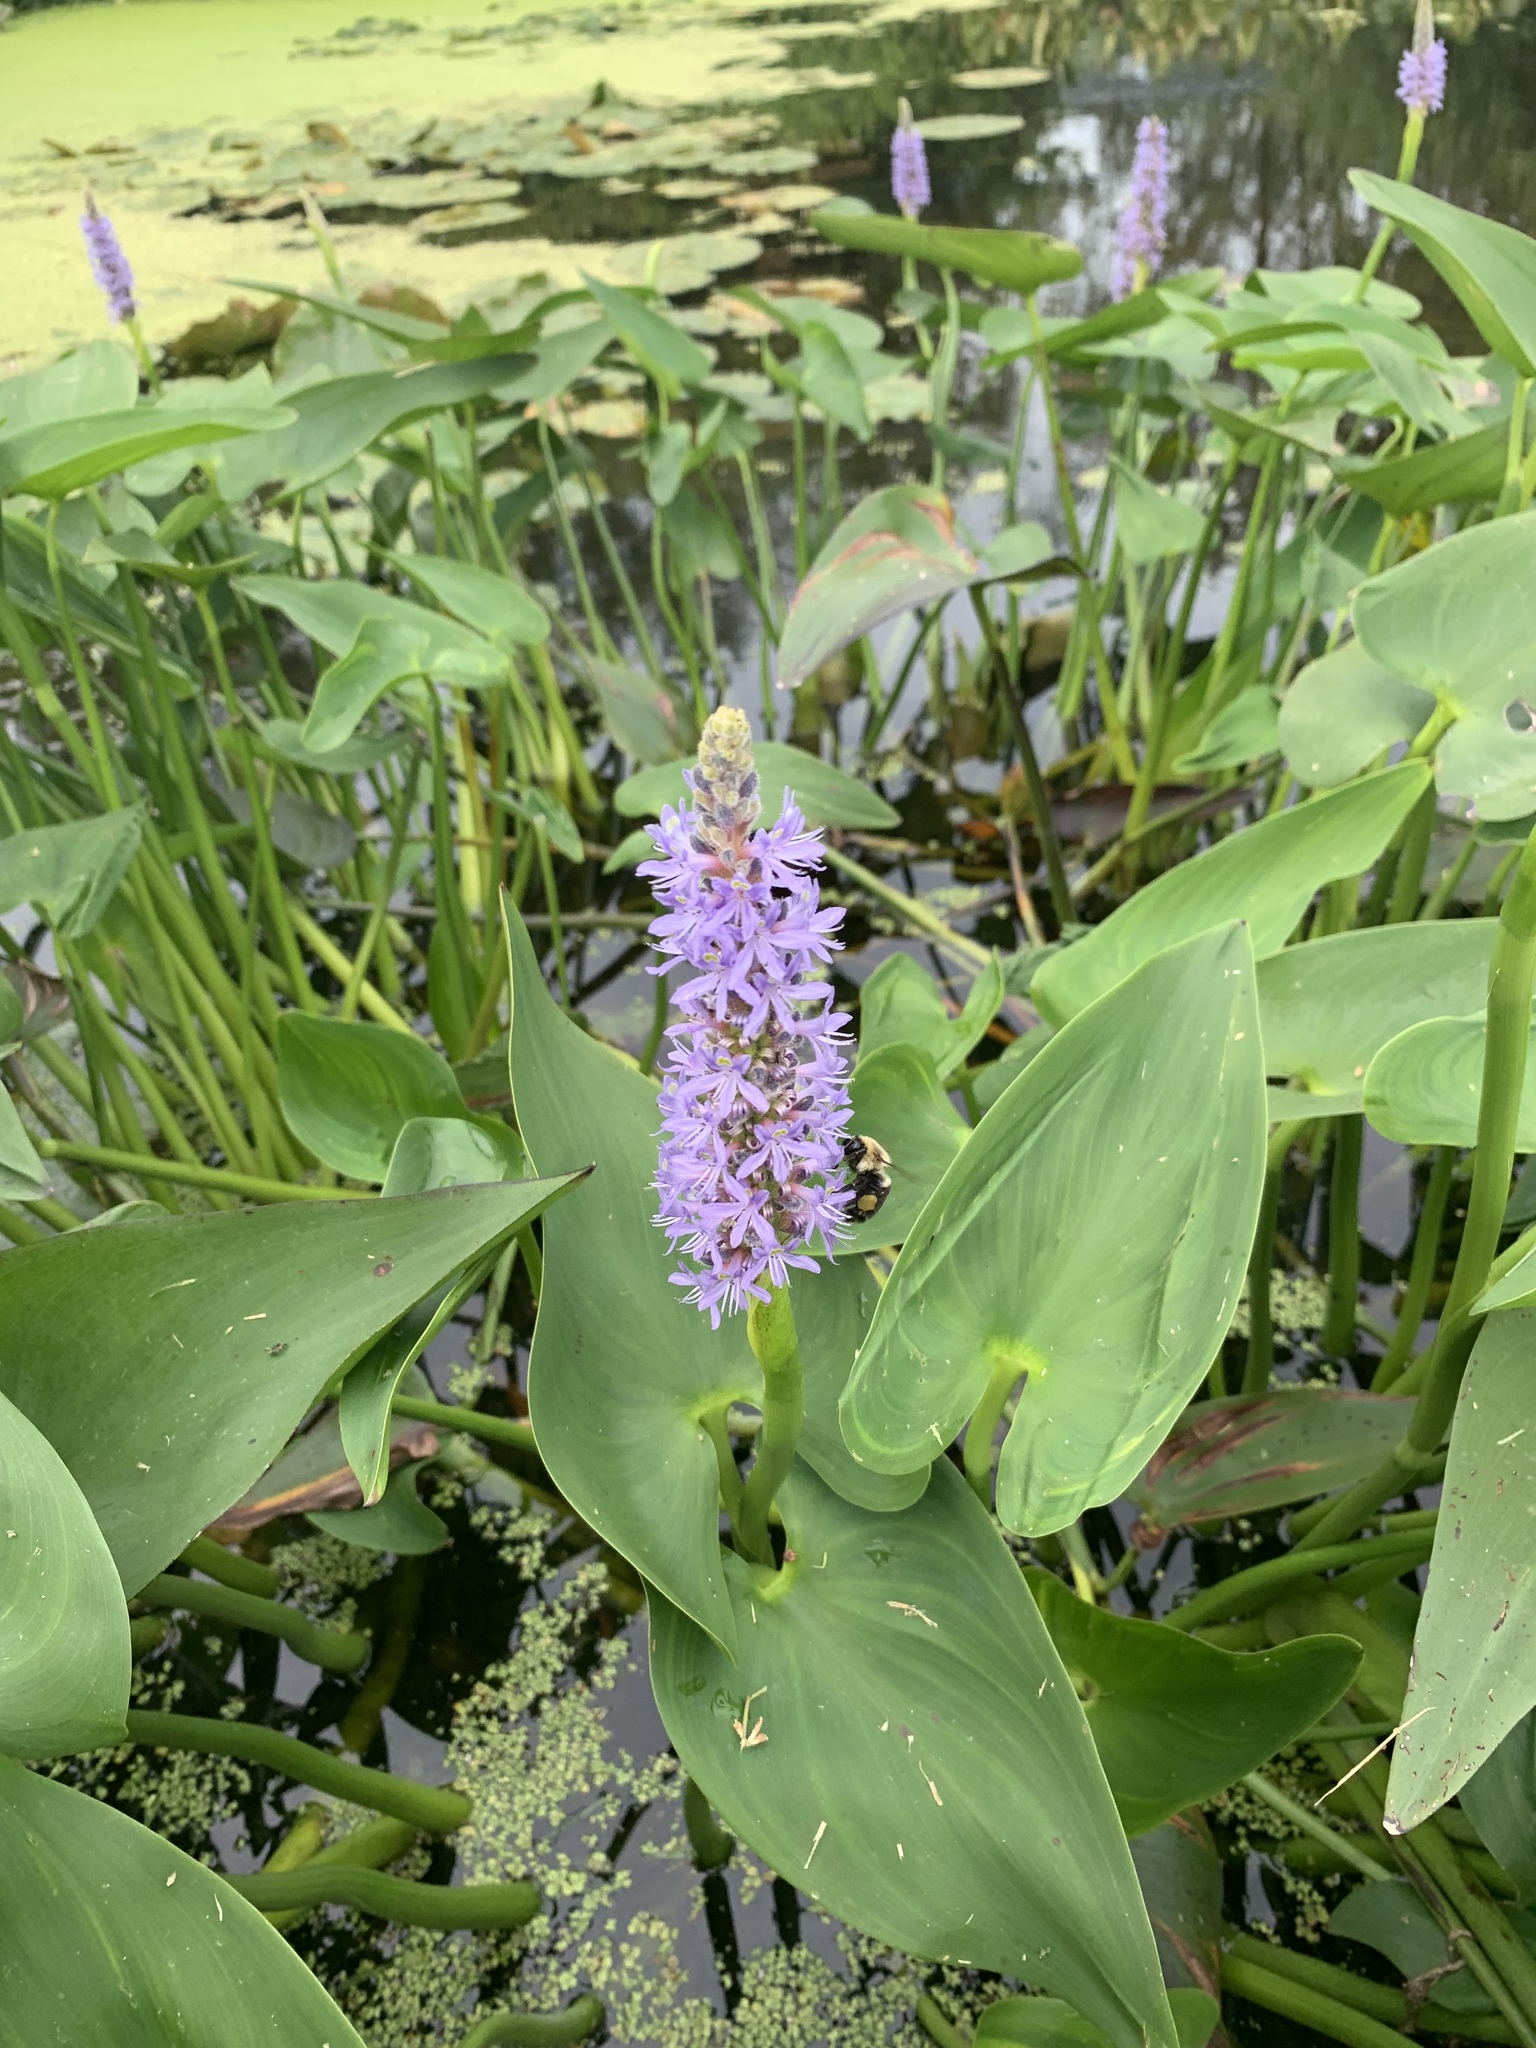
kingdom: Plantae
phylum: Tracheophyta
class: Liliopsida
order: Commelinales
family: Pontederiaceae
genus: Pontederia
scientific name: Pontederia cordata
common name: Pickerelweed
